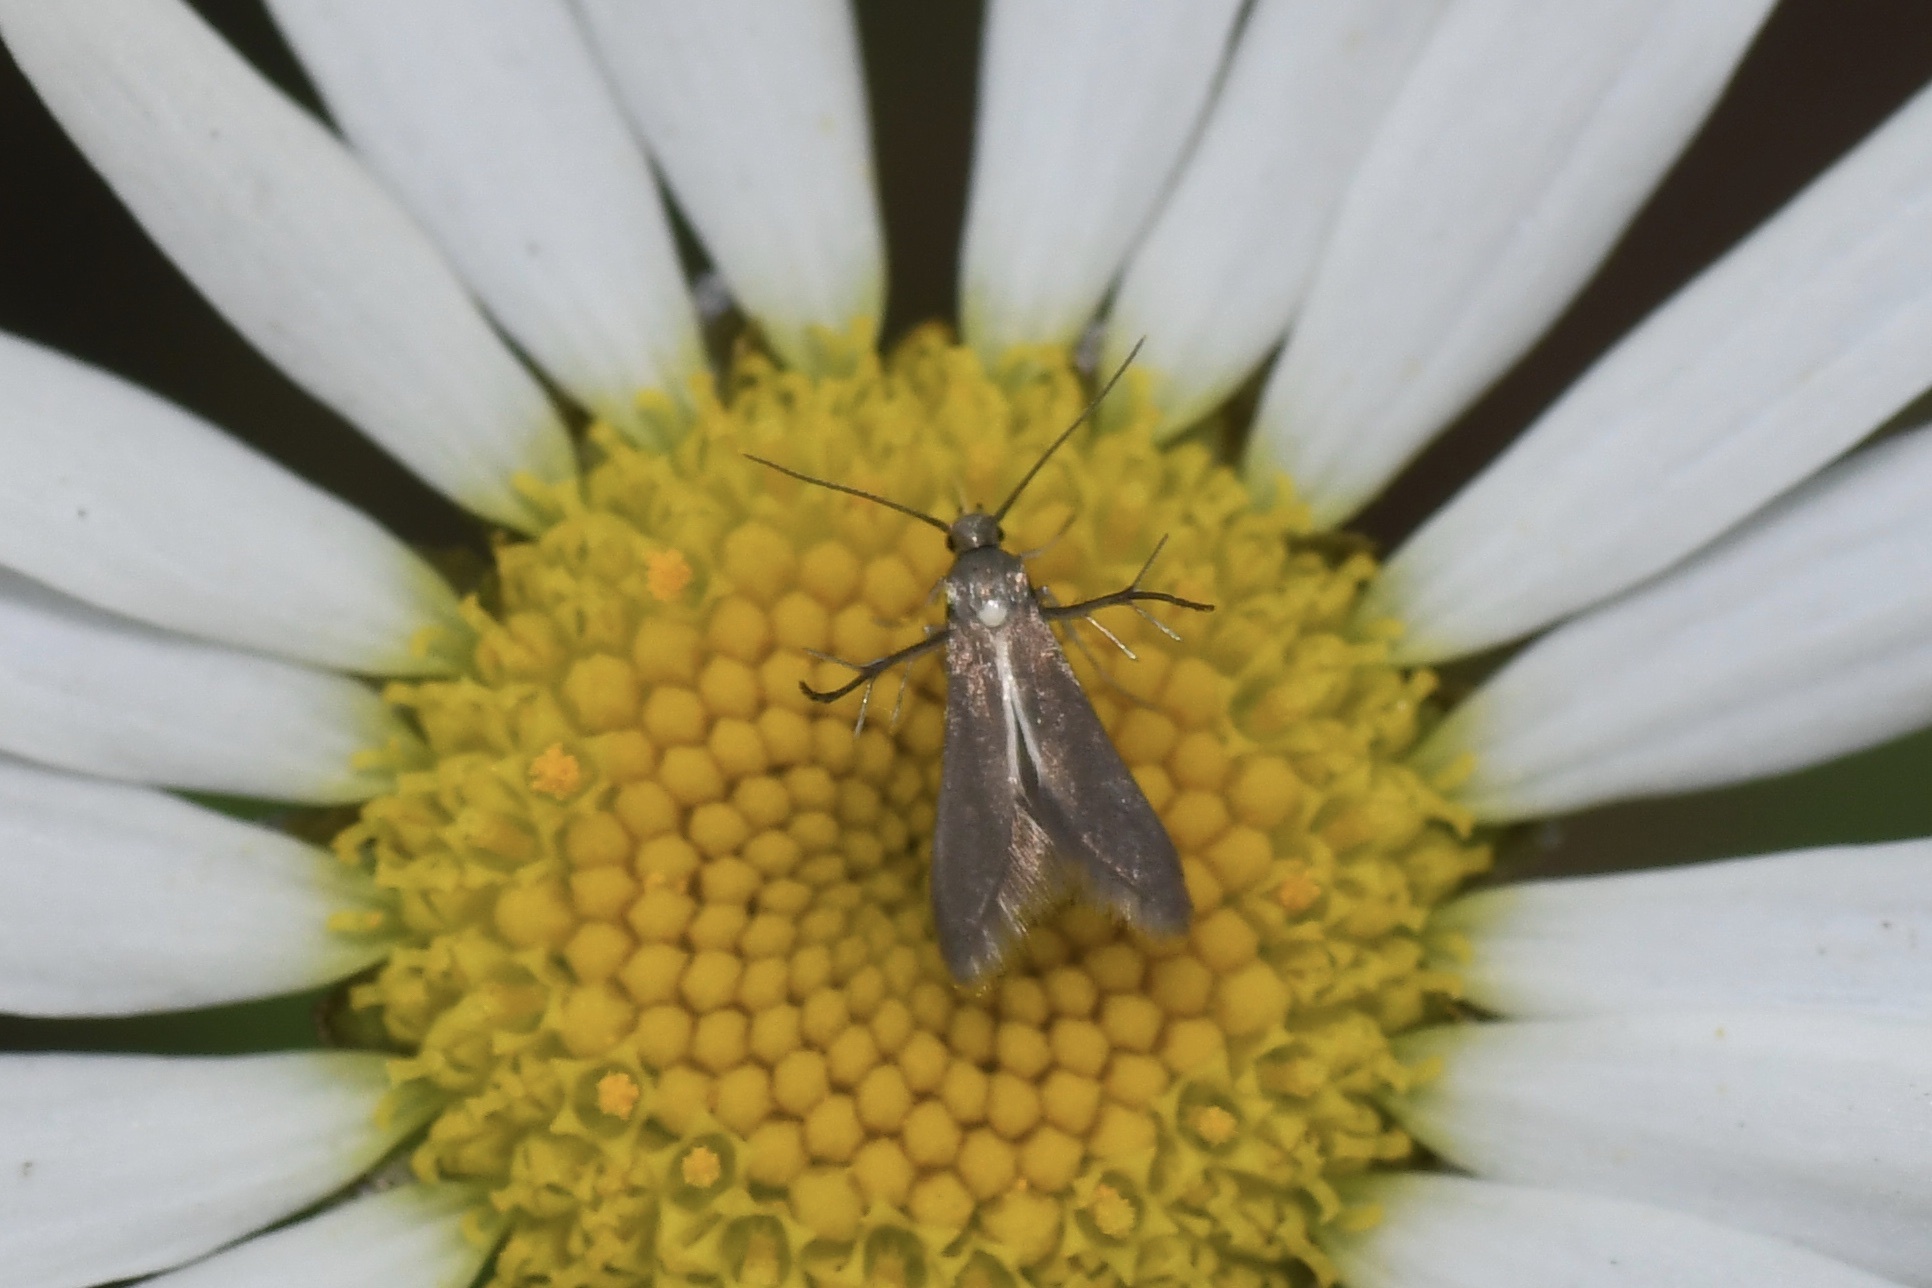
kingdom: Animalia
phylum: Arthropoda
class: Insecta
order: Lepidoptera
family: Schreckensteiniidae
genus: Schreckensteinia
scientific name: Schreckensteinia erythriella
